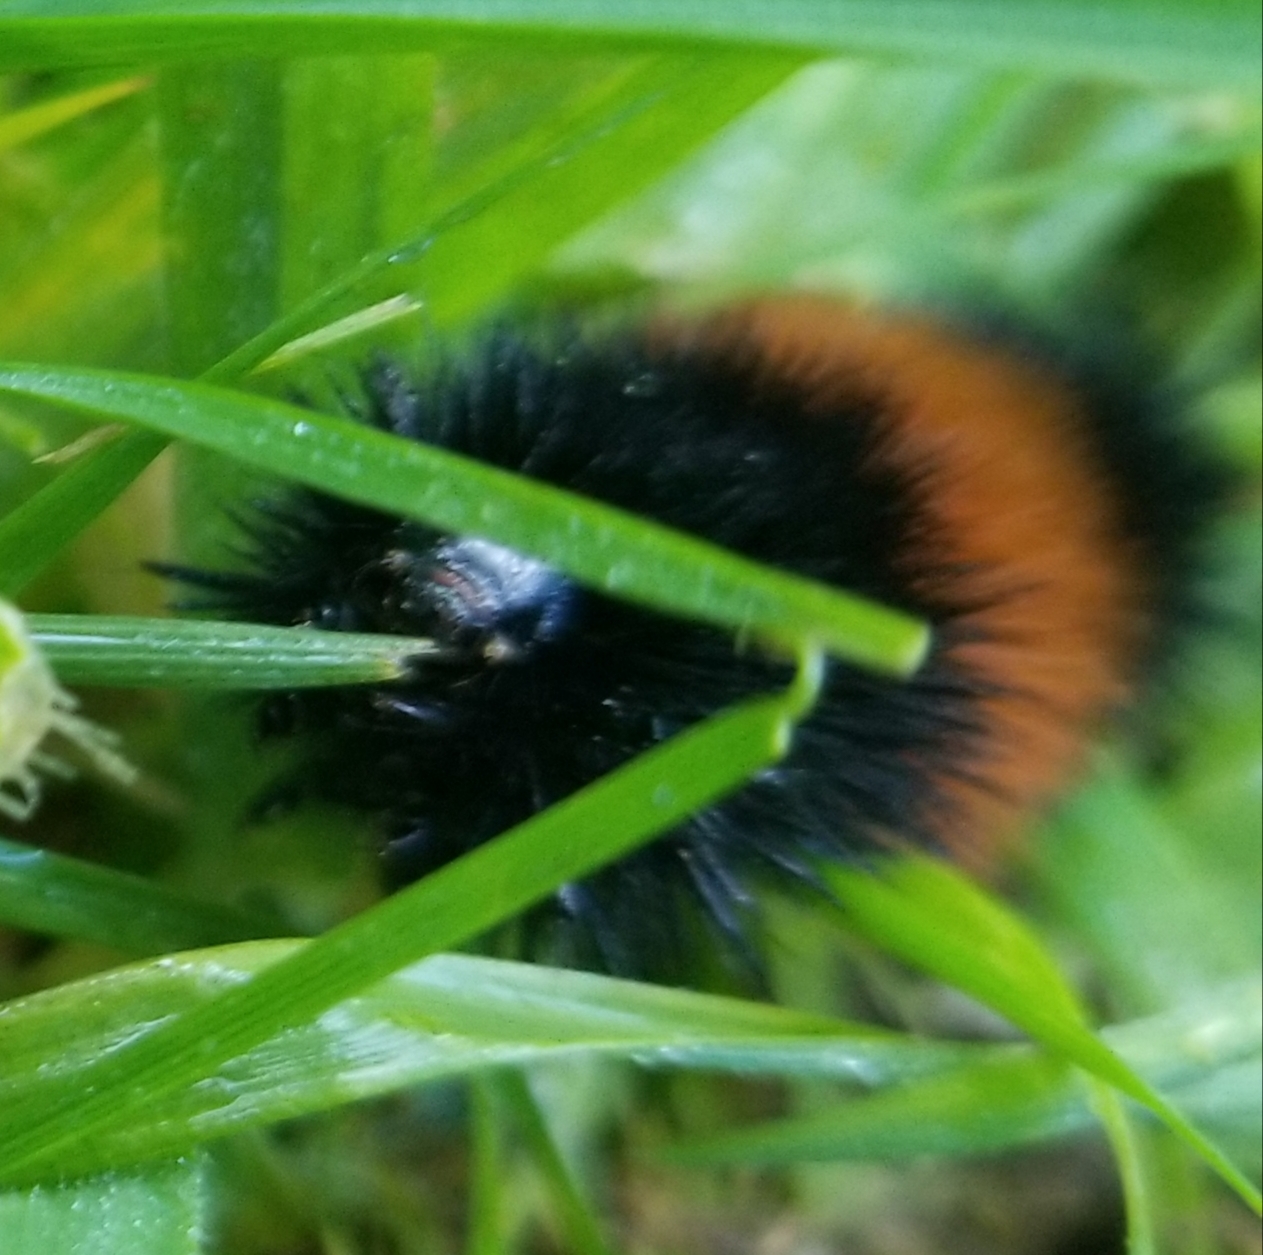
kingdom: Animalia
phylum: Arthropoda
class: Insecta
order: Lepidoptera
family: Erebidae
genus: Pyrrharctia
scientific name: Pyrrharctia isabella
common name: Isabella tiger moth
